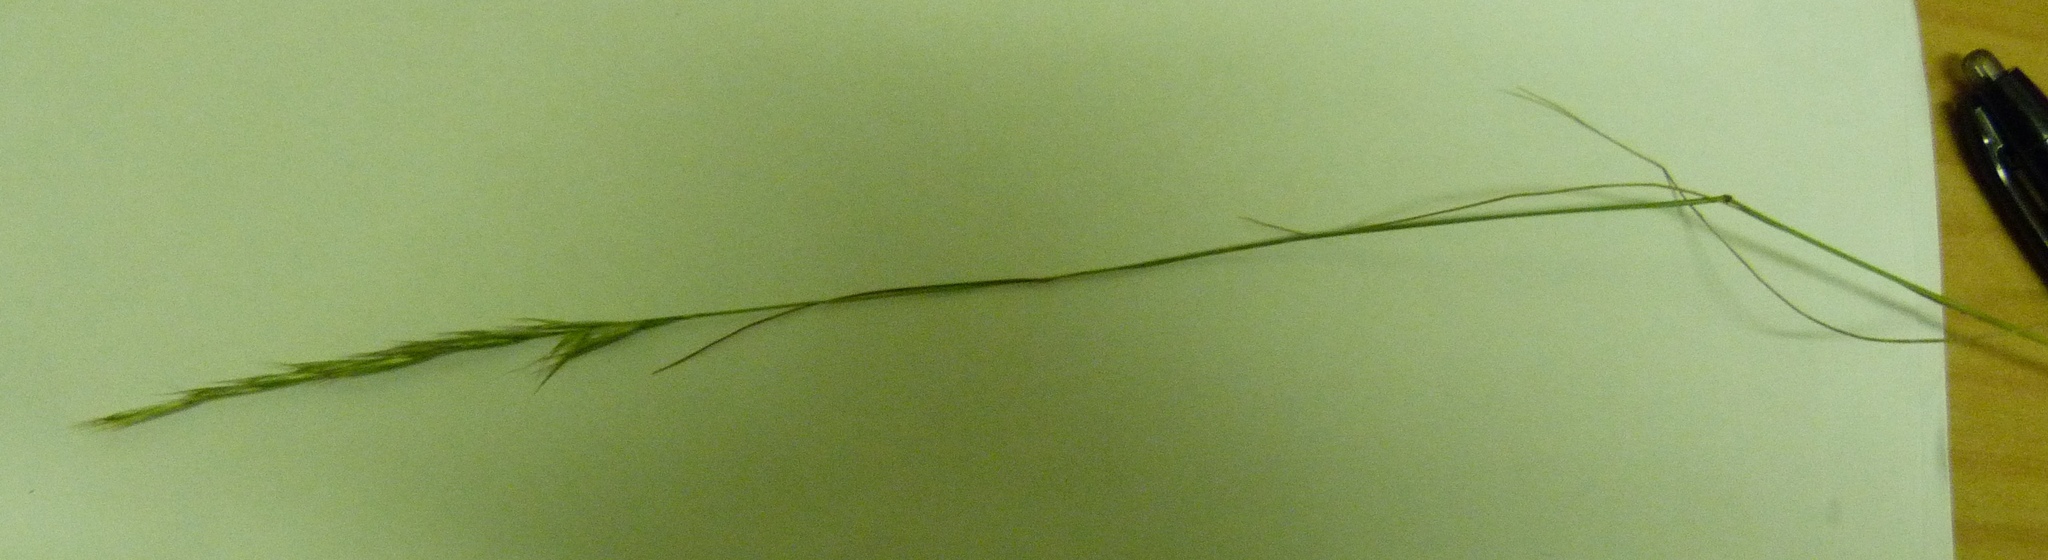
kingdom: Plantae
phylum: Tracheophyta
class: Liliopsida
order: Poales
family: Poaceae
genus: Rytidosperma
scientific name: Rytidosperma racemosum
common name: Wallaby-grass
